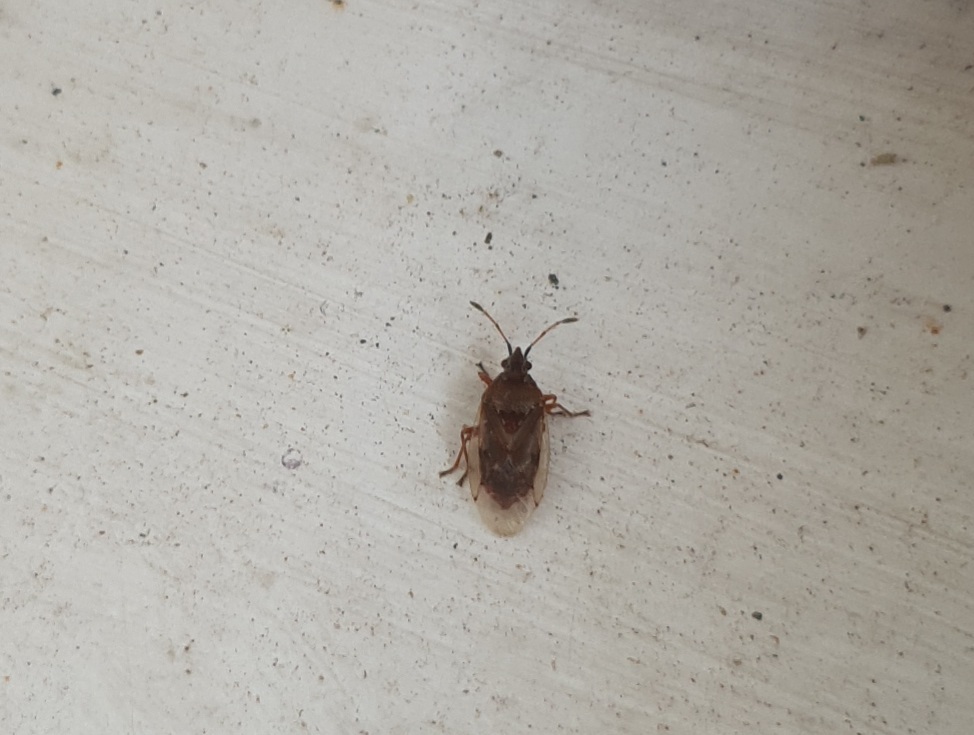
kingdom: Animalia
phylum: Arthropoda
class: Insecta
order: Hemiptera
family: Lygaeidae
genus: Kleidocerys
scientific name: Kleidocerys resedae
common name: Birch catkin bug
